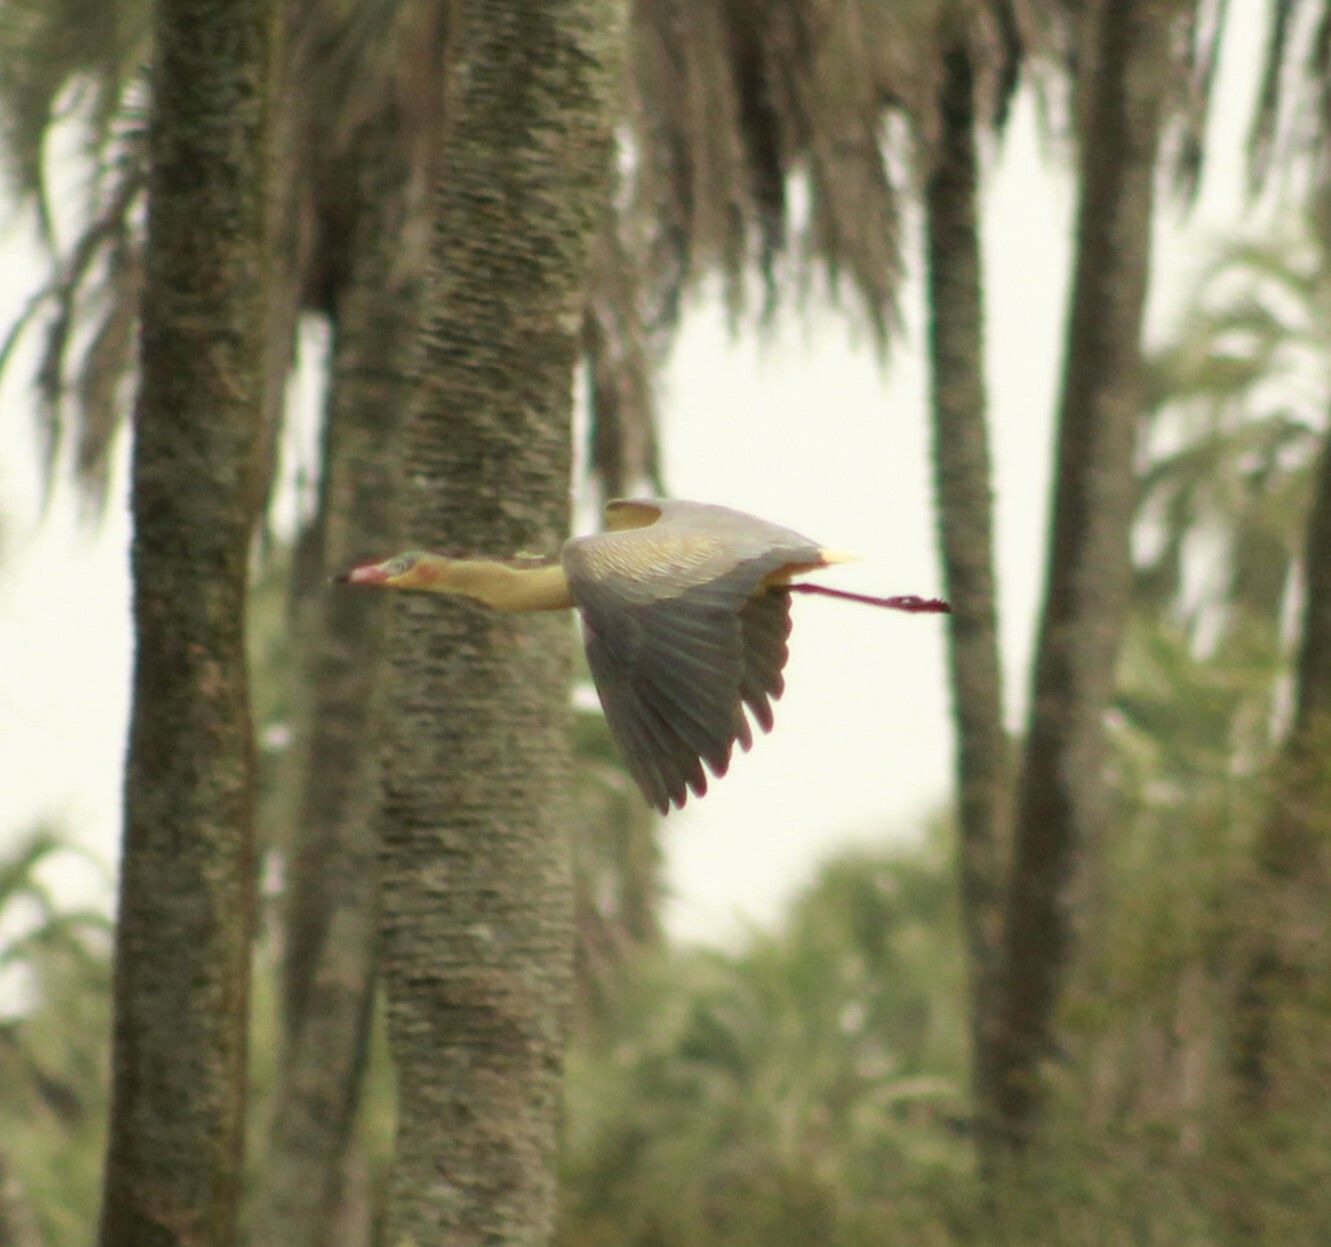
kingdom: Animalia
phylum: Chordata
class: Aves
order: Pelecaniformes
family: Ardeidae
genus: Syrigma
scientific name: Syrigma sibilatrix
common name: Whistling heron
